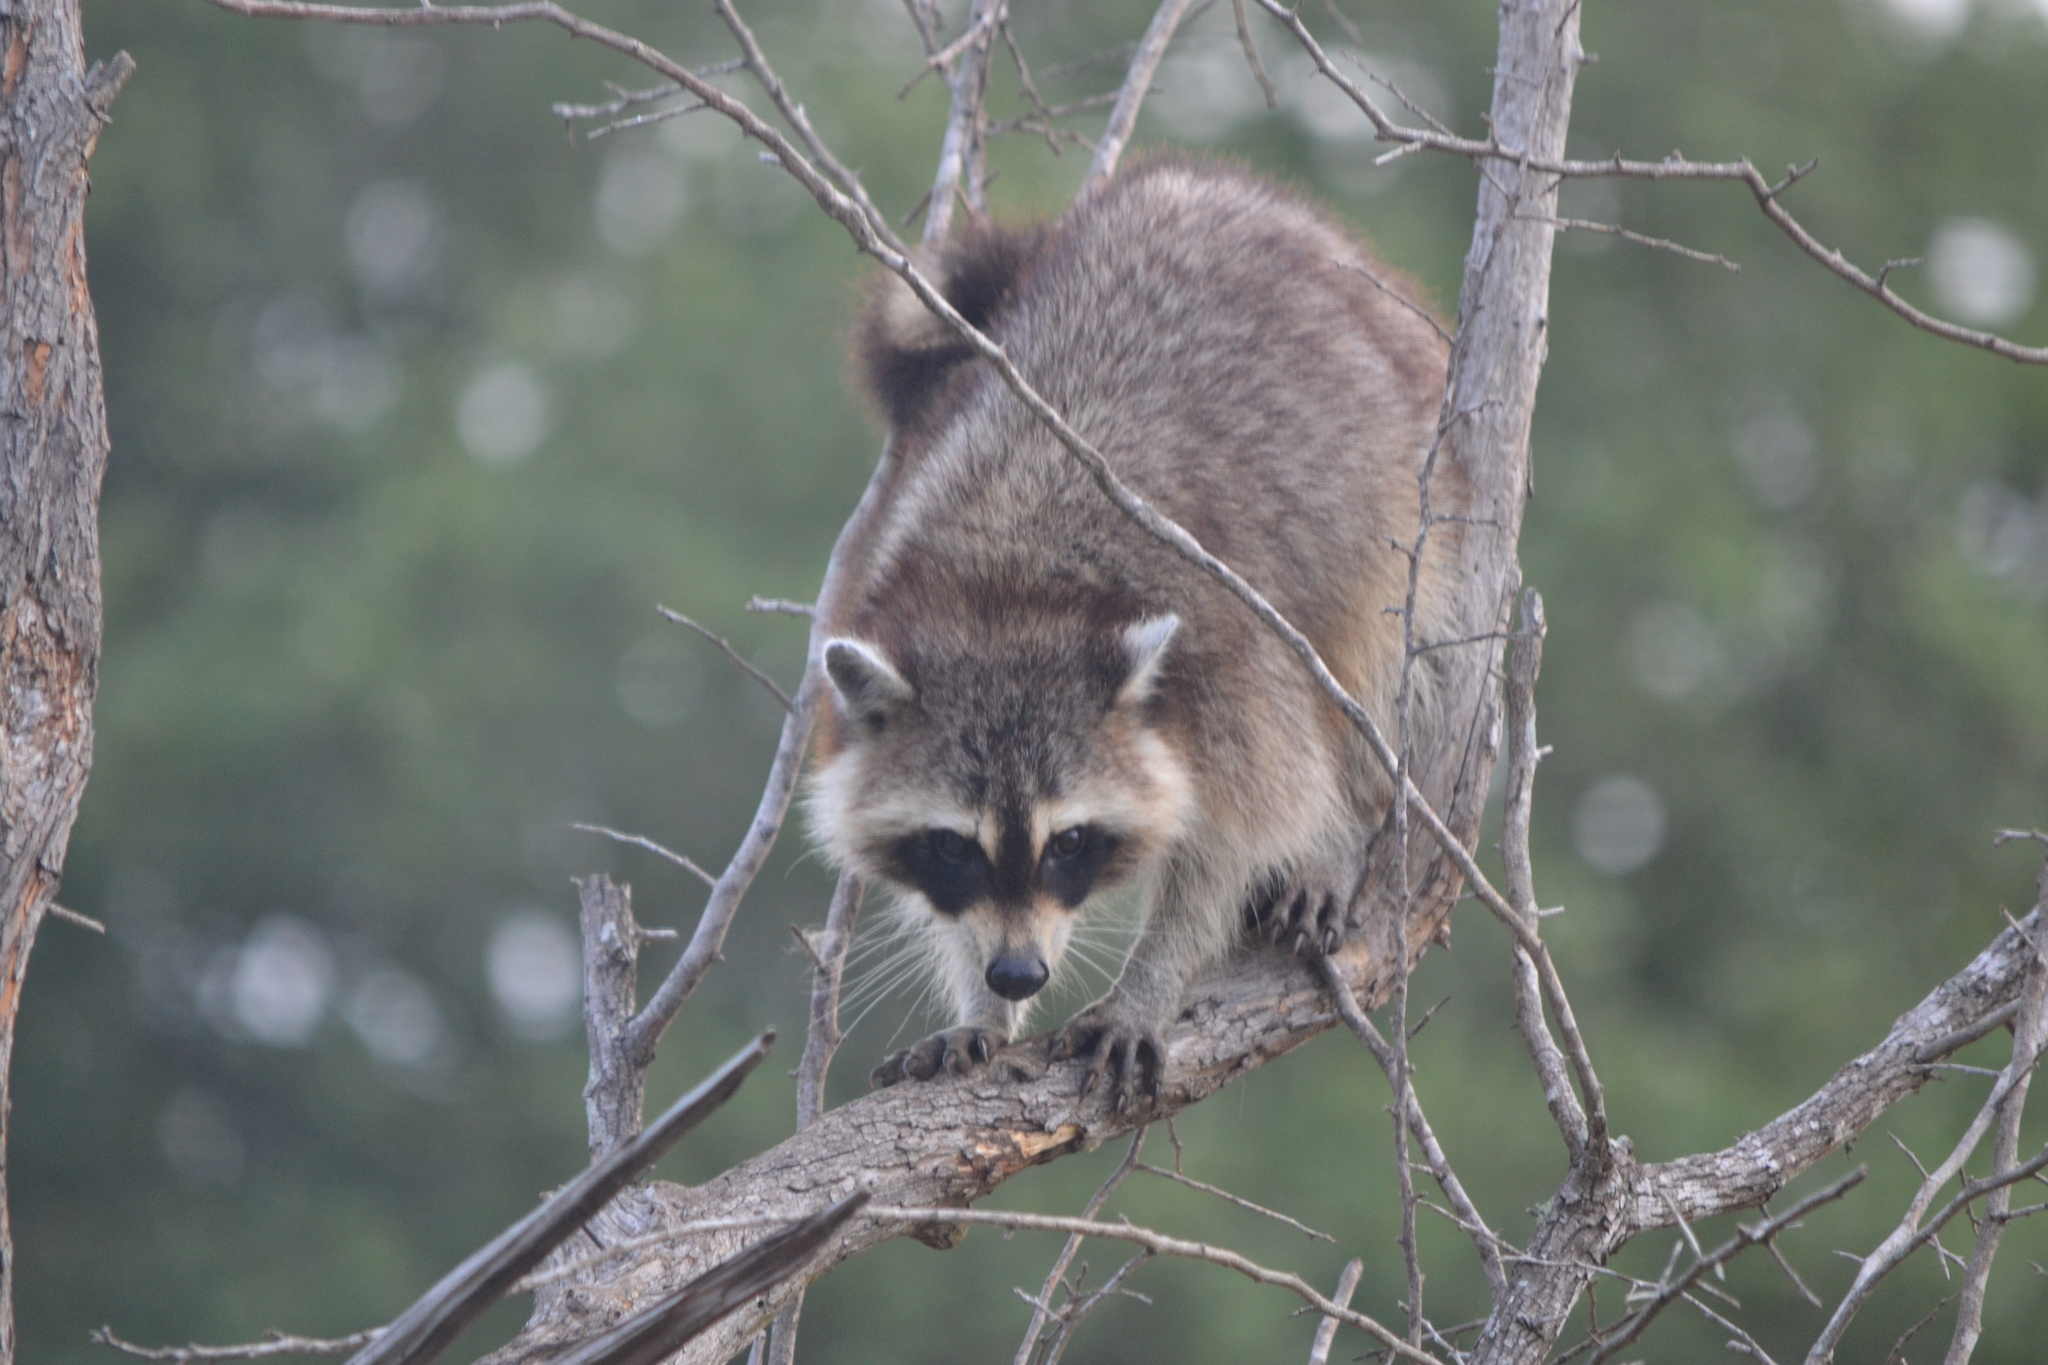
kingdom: Animalia
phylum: Chordata
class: Mammalia
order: Carnivora
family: Procyonidae
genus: Procyon
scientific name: Procyon lotor
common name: Raccoon
